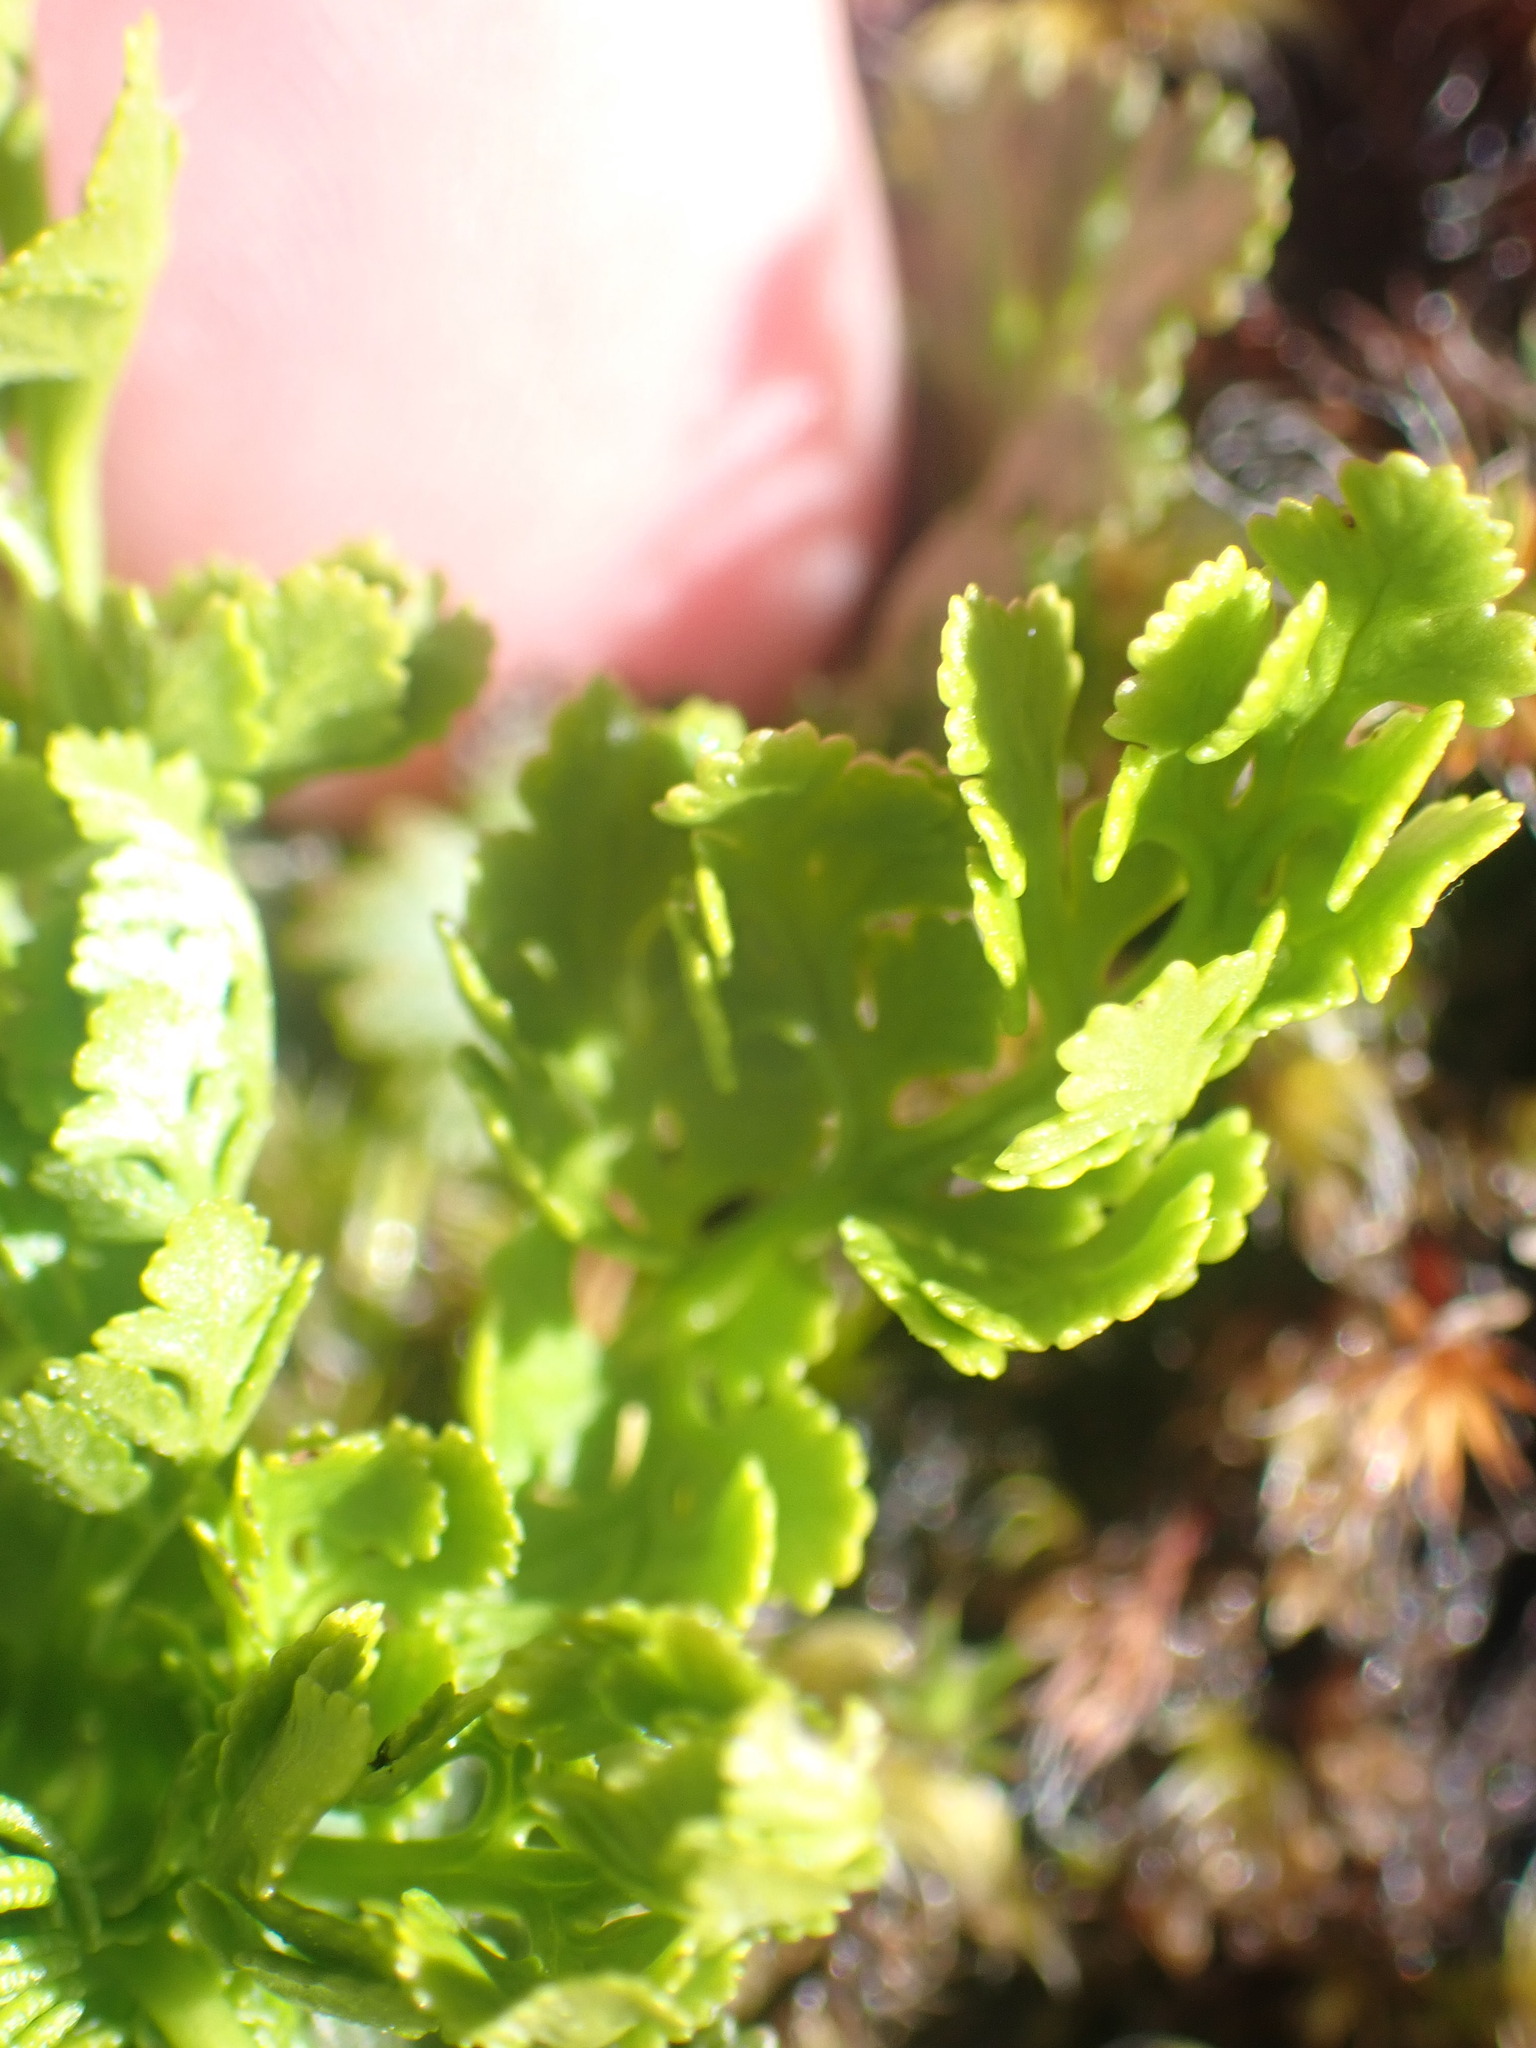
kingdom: Plantae
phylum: Tracheophyta
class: Polypodiopsida
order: Polypodiales
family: Pteridaceae
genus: Cryptogramma
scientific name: Cryptogramma acrostichoides
